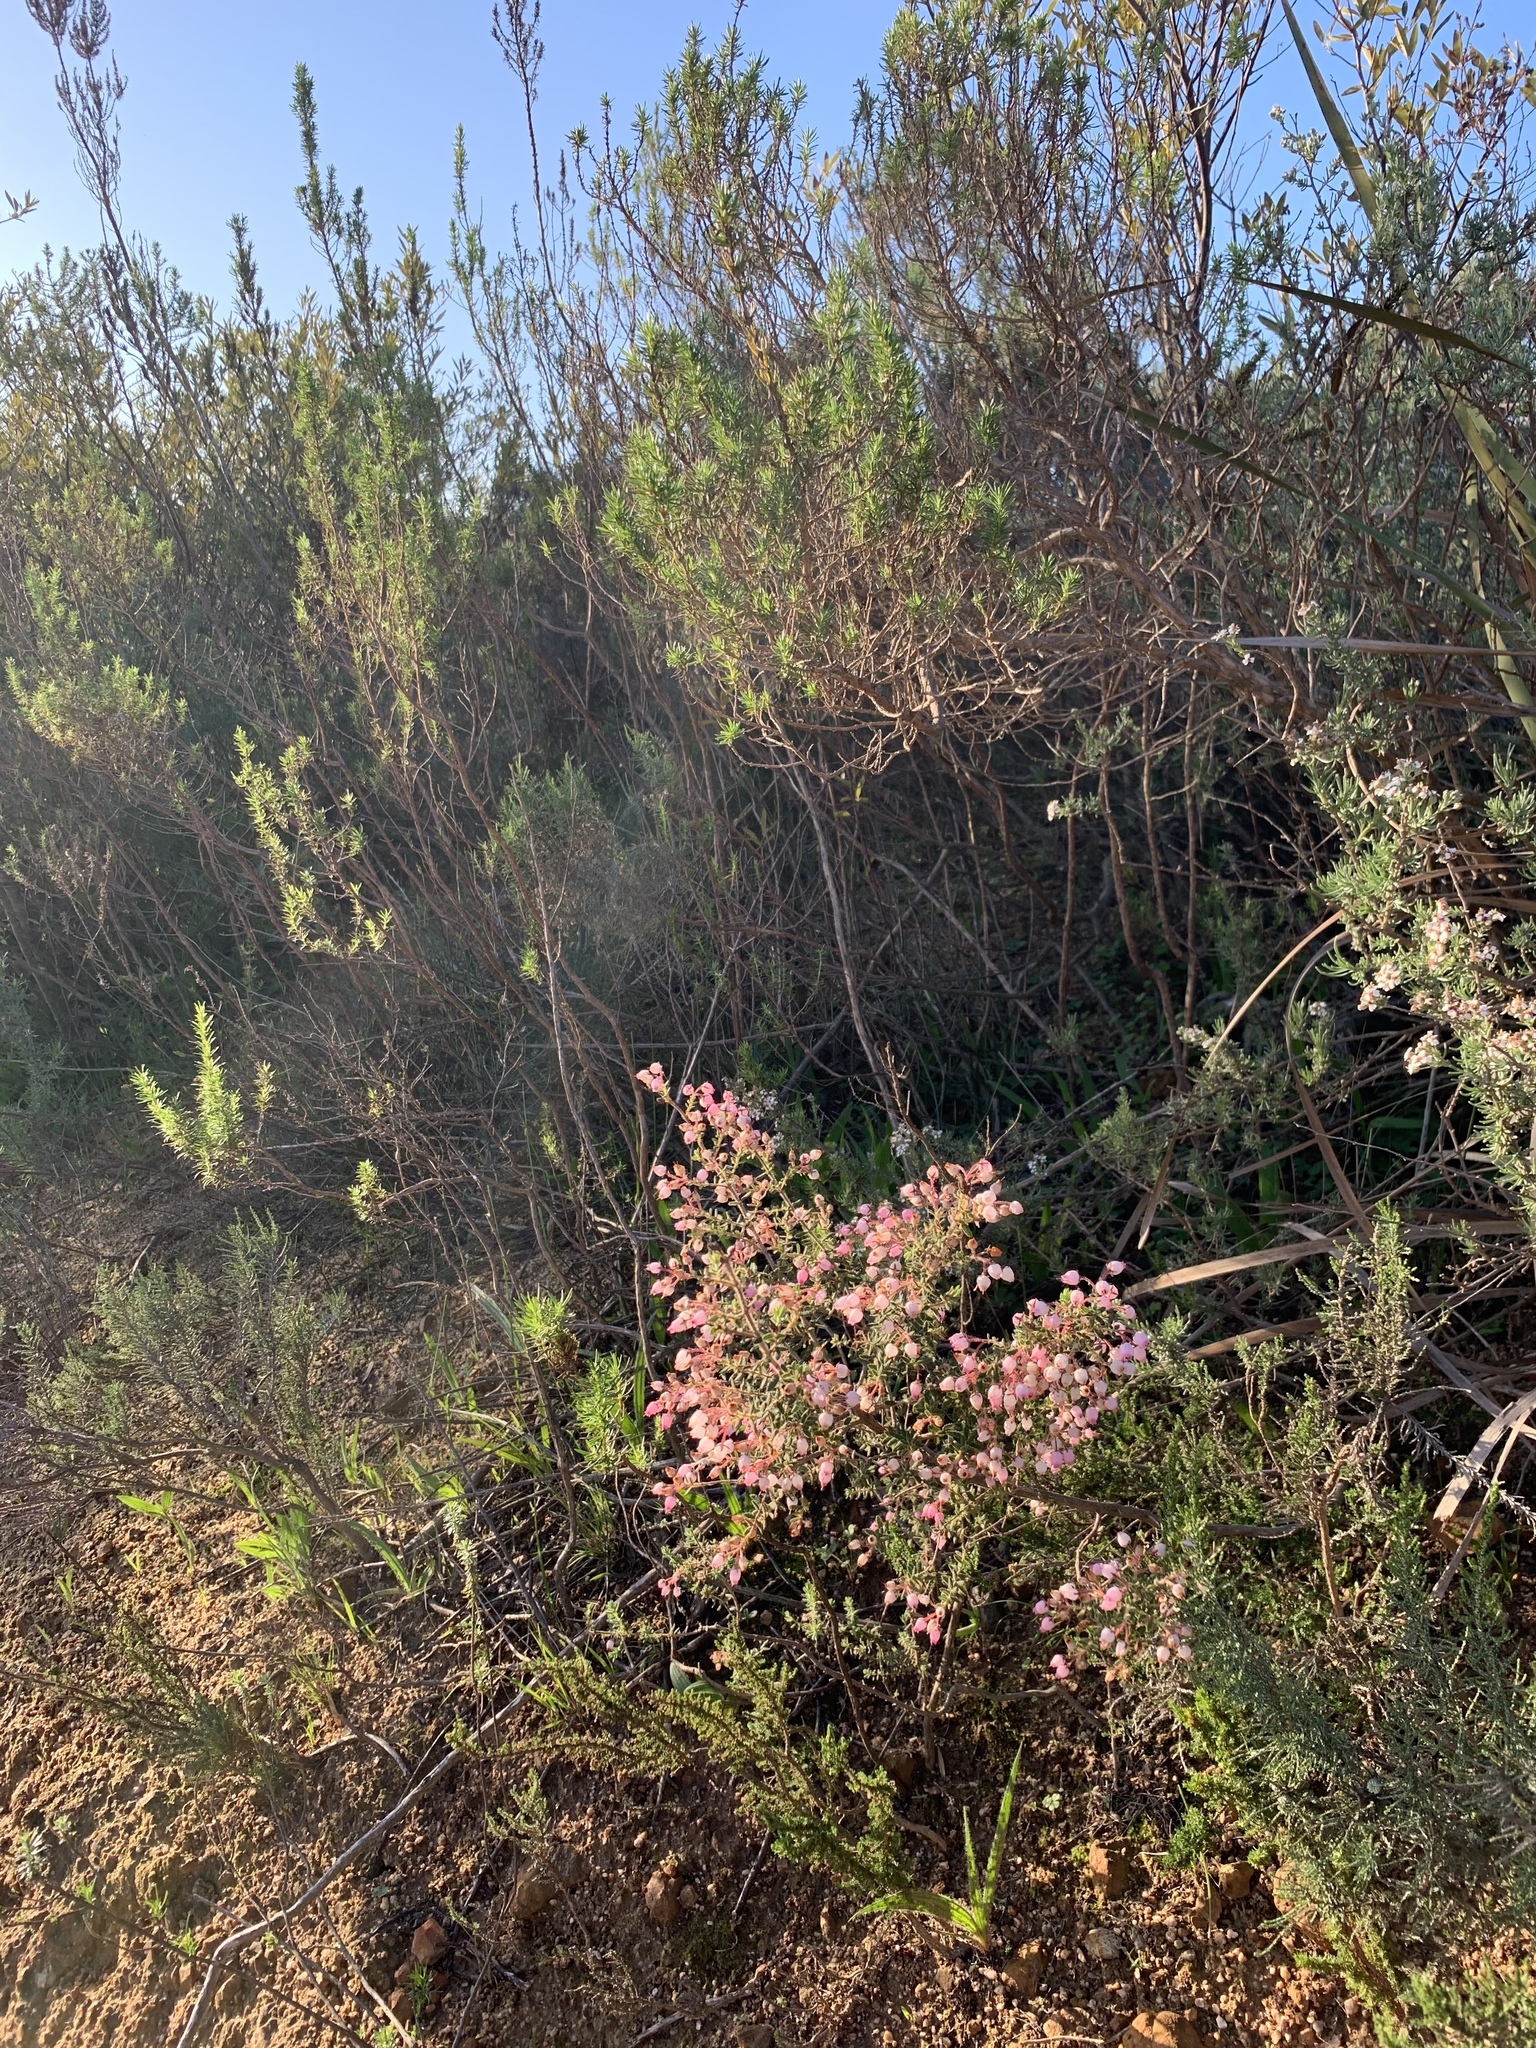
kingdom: Plantae
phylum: Tracheophyta
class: Magnoliopsida
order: Ericales
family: Ericaceae
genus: Erica
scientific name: Erica hirta
